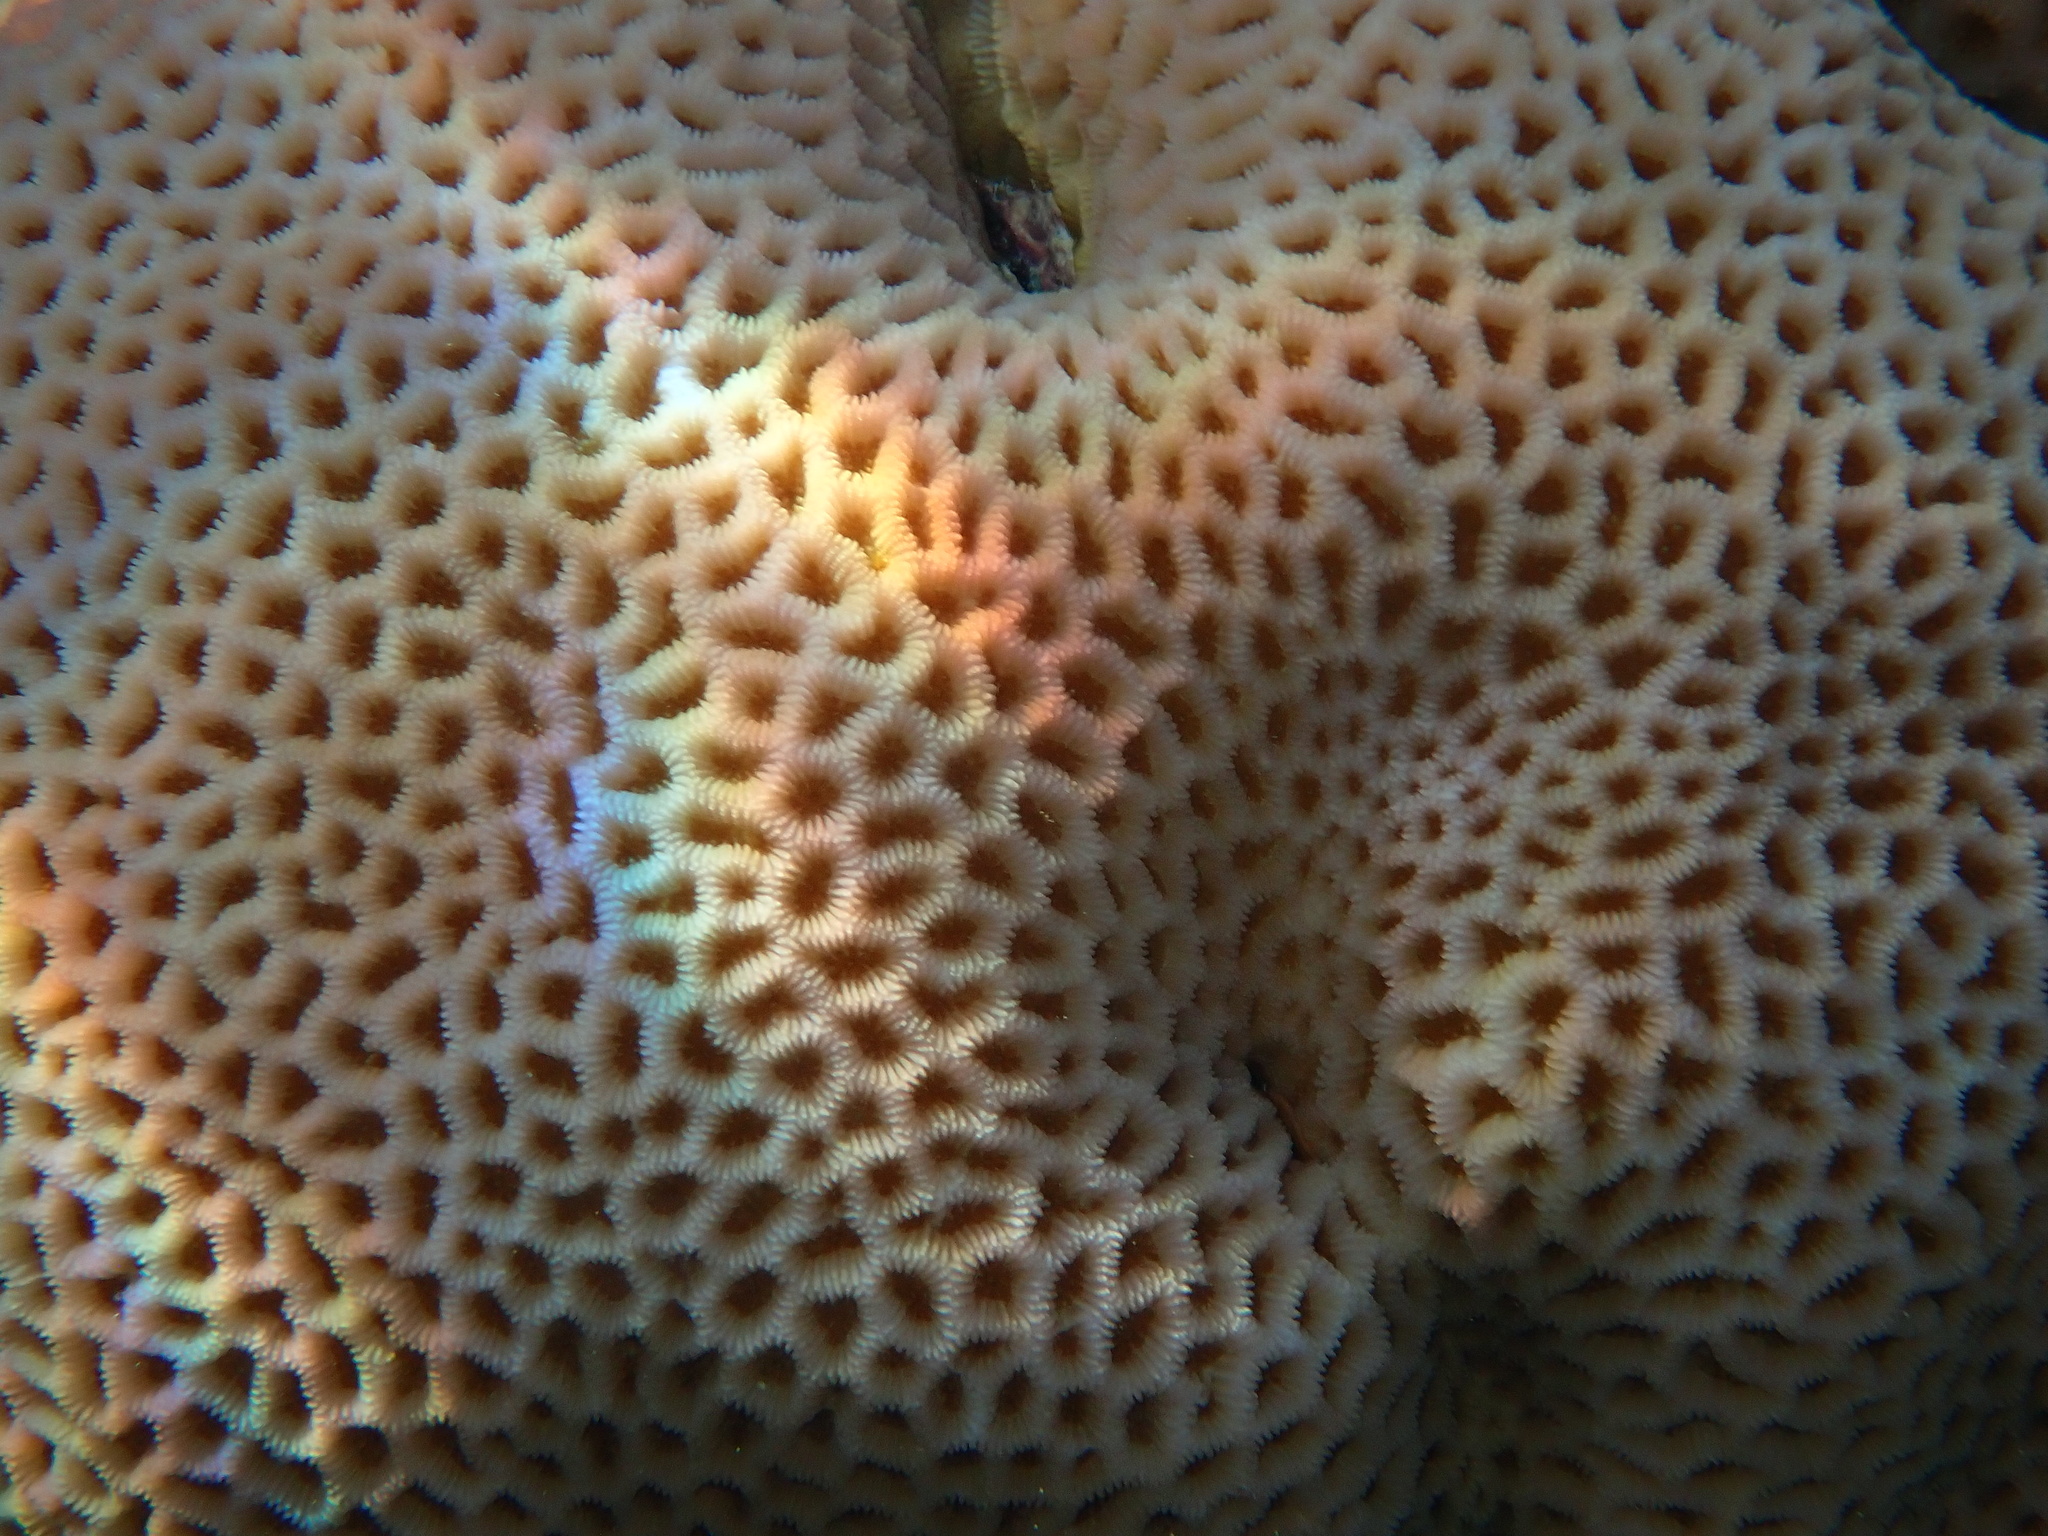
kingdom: Animalia
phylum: Cnidaria
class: Anthozoa
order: Scleractinia
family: Merulinidae
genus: Goniastrea
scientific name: Goniastrea pectinata
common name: Lesser star coral
